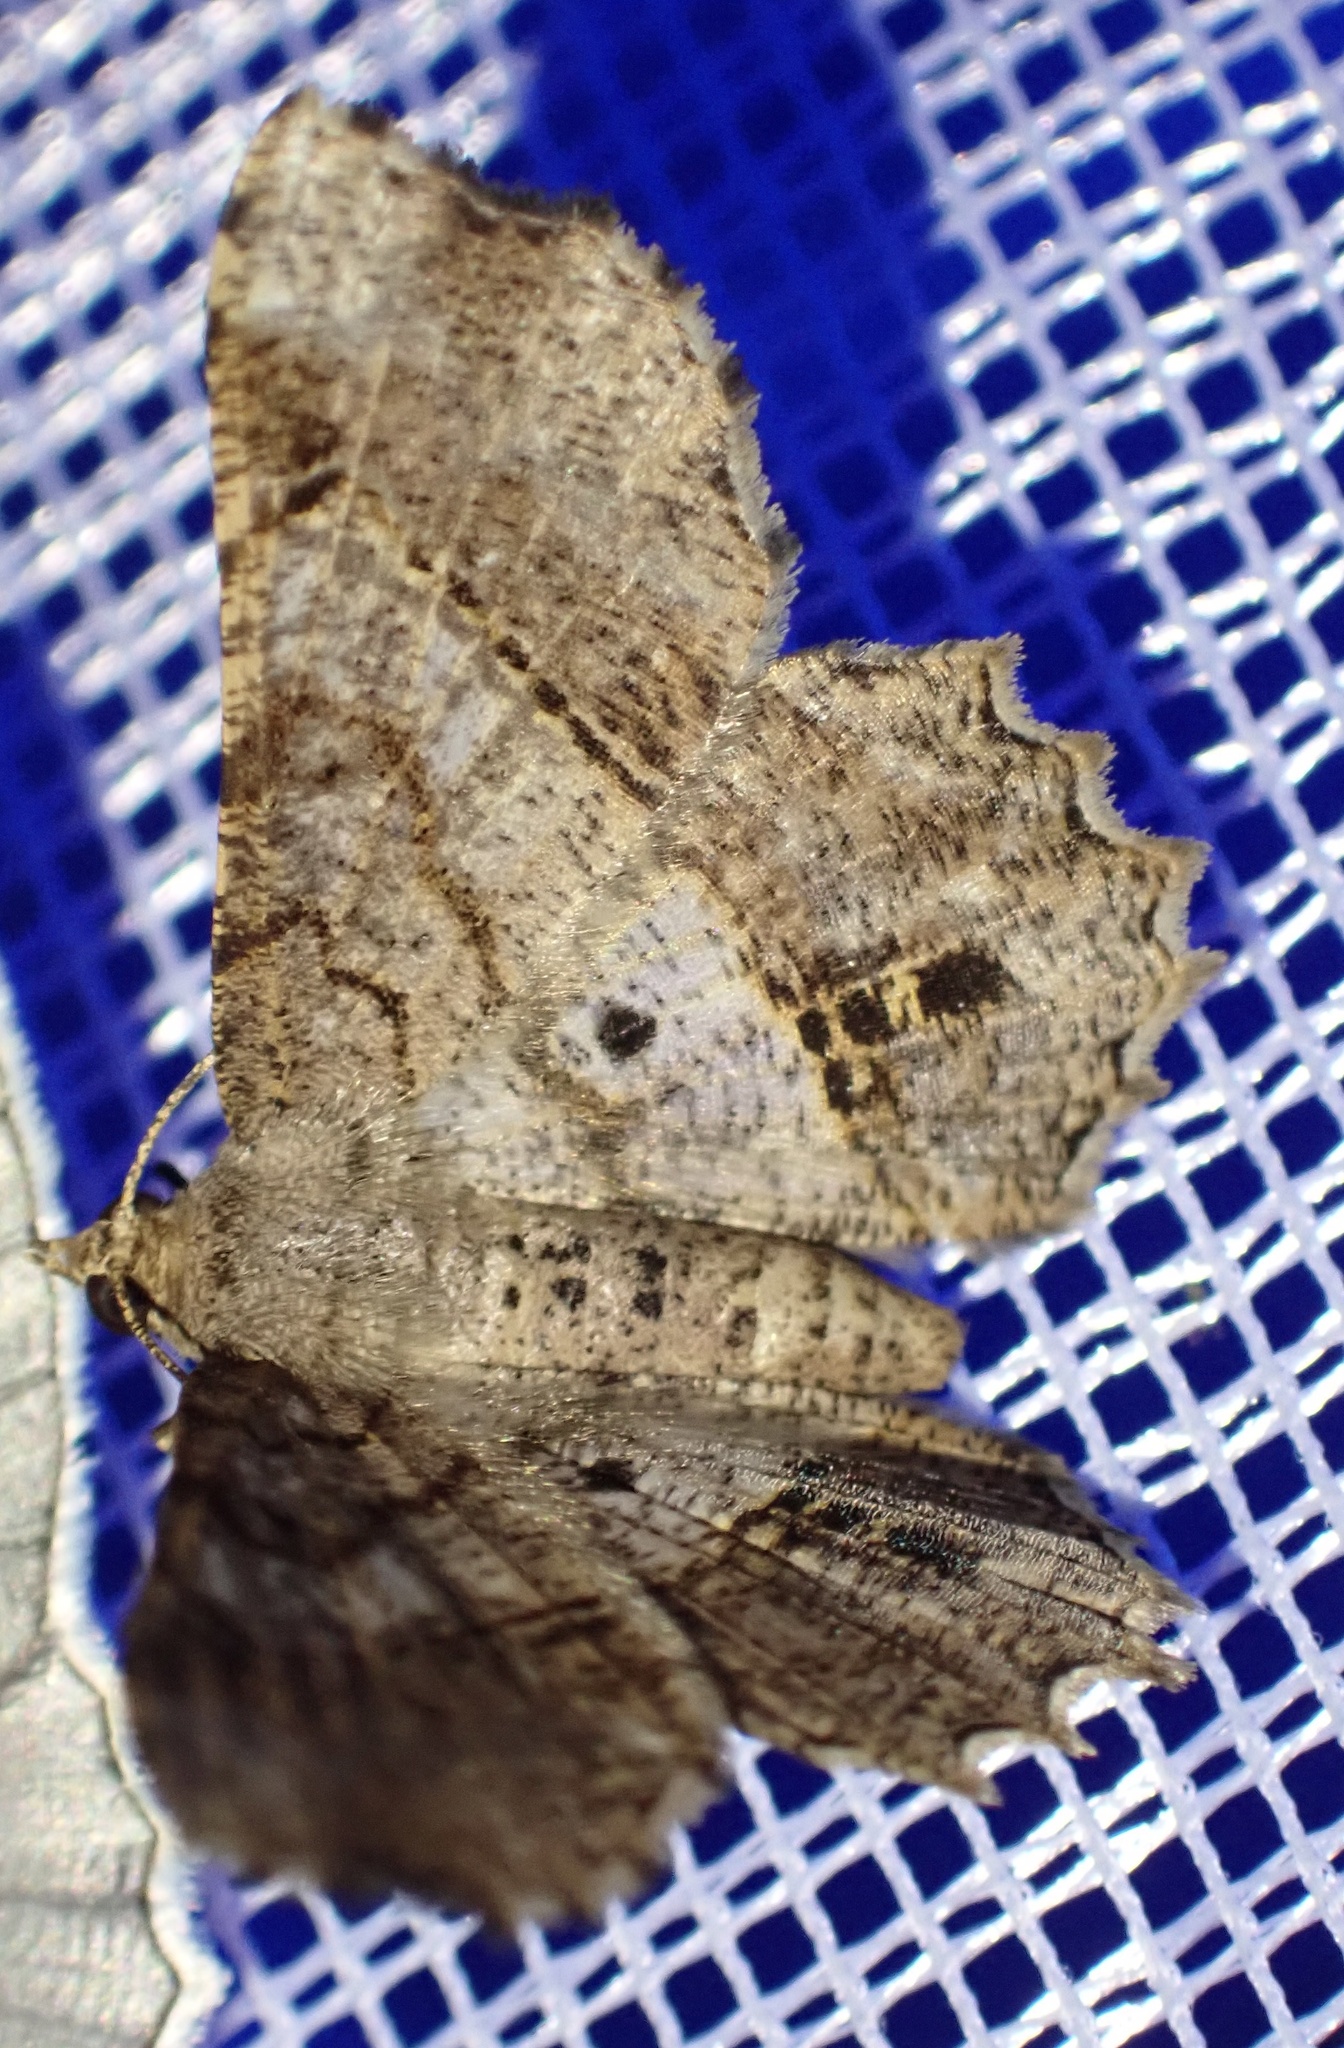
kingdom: Animalia
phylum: Arthropoda
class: Insecta
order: Lepidoptera
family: Geometridae
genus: Chiasmia
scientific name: Chiasmia avitusaria
